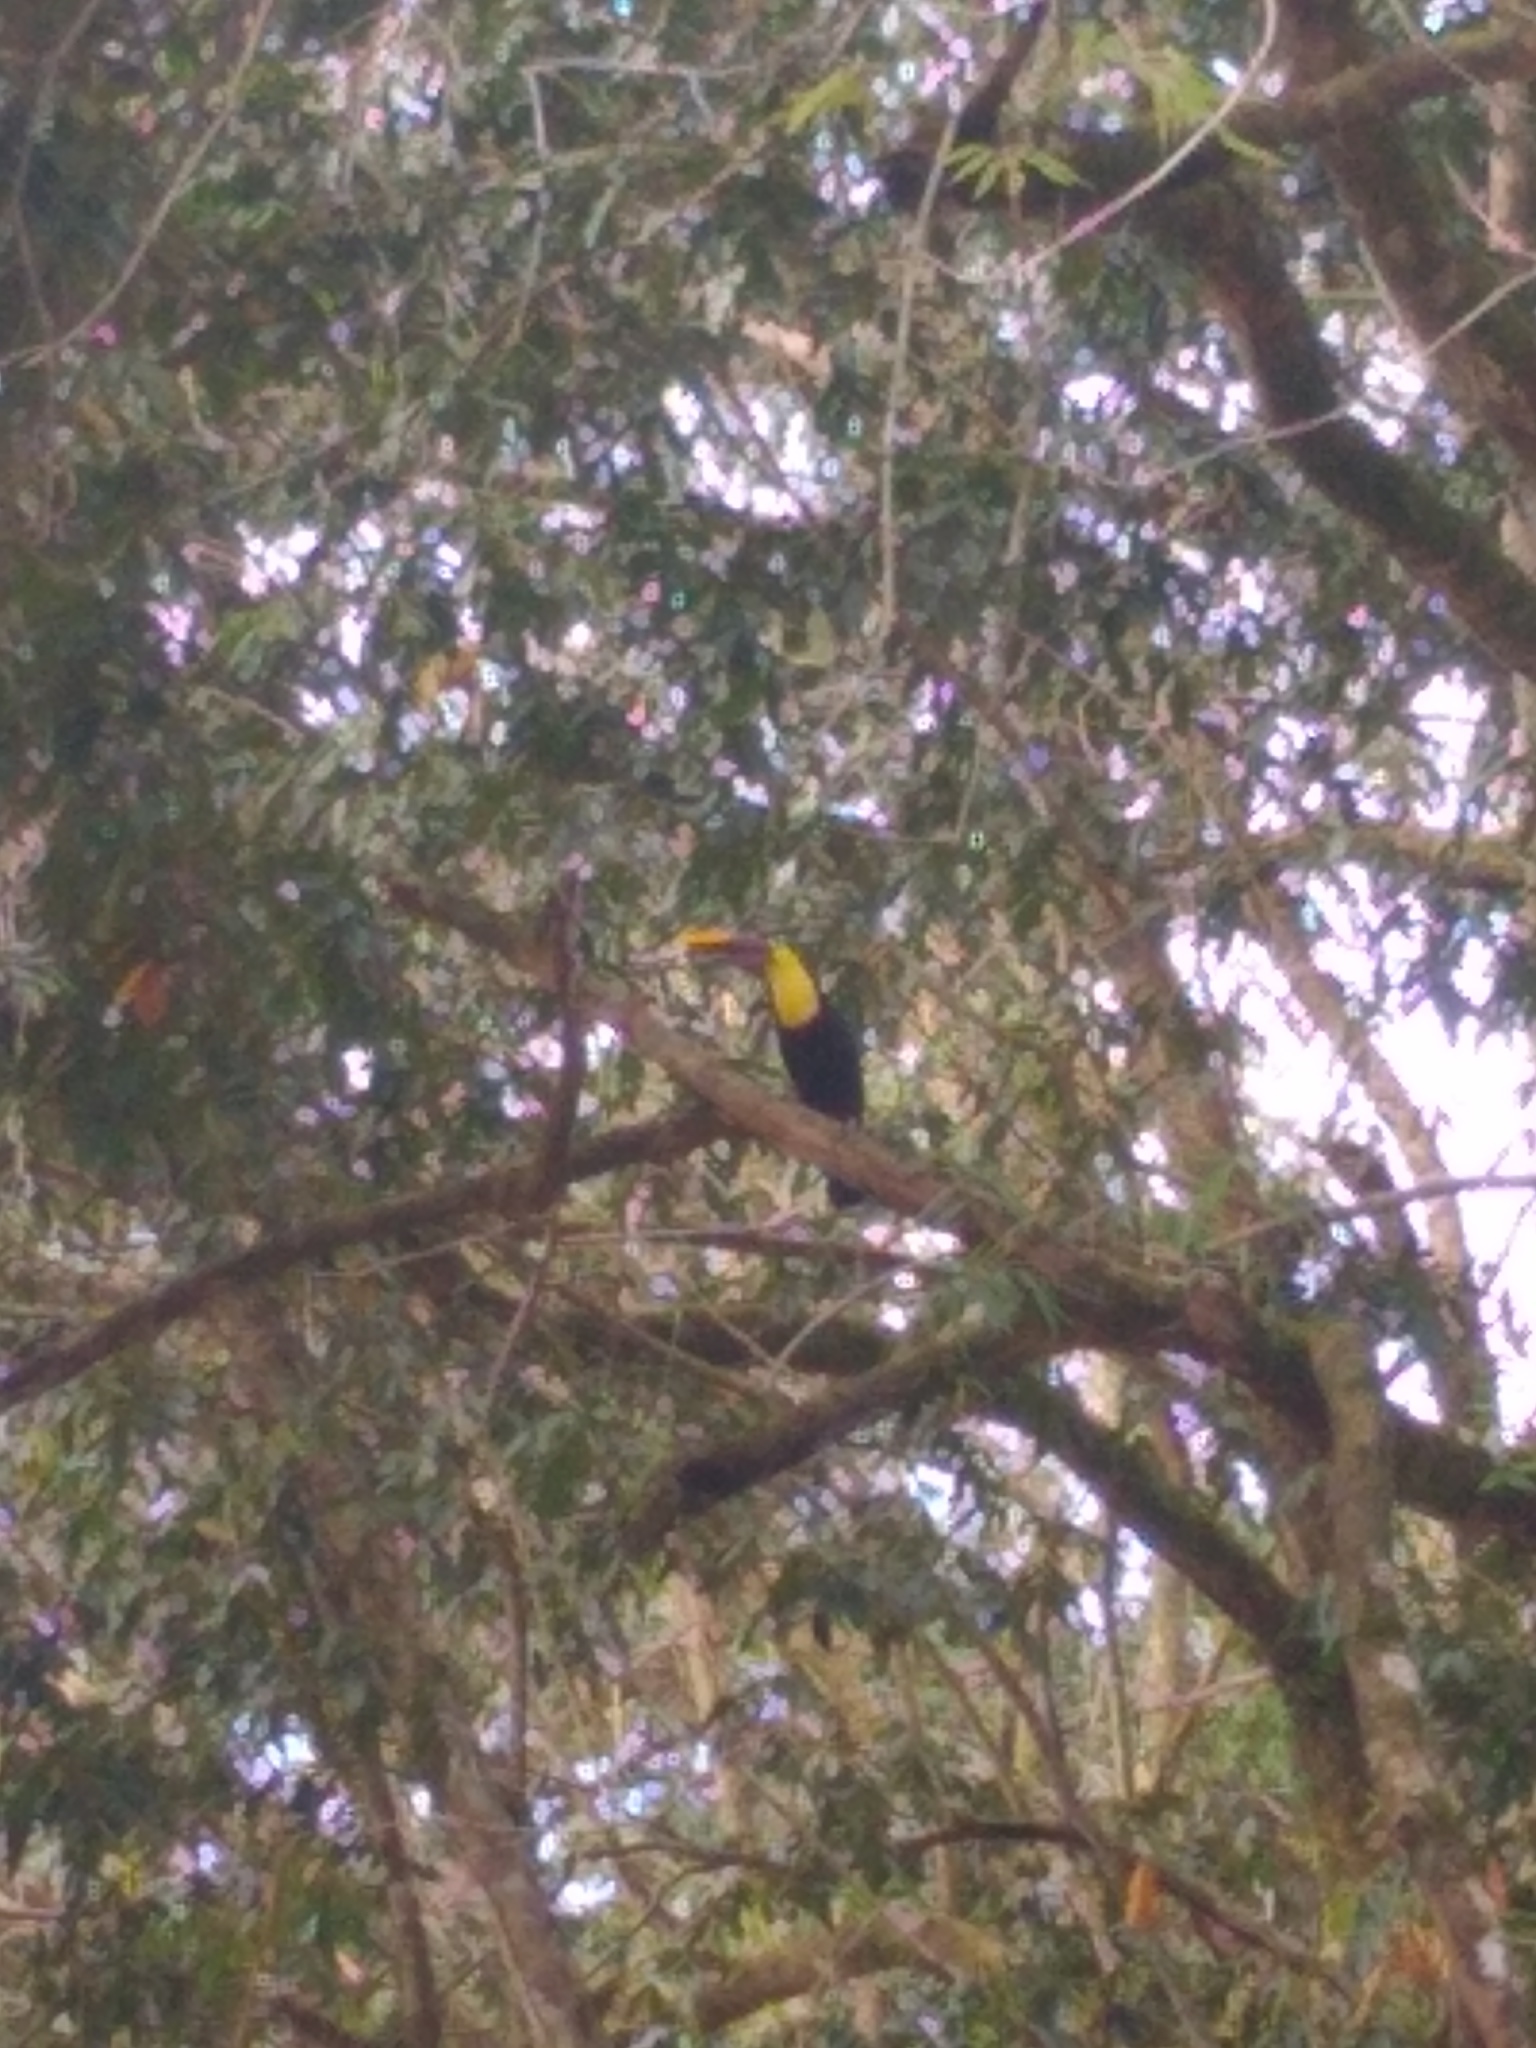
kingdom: Animalia
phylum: Chordata
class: Aves
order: Piciformes
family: Ramphastidae
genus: Ramphastos
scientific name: Ramphastos ambiguus
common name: Yellow-throated toucan
